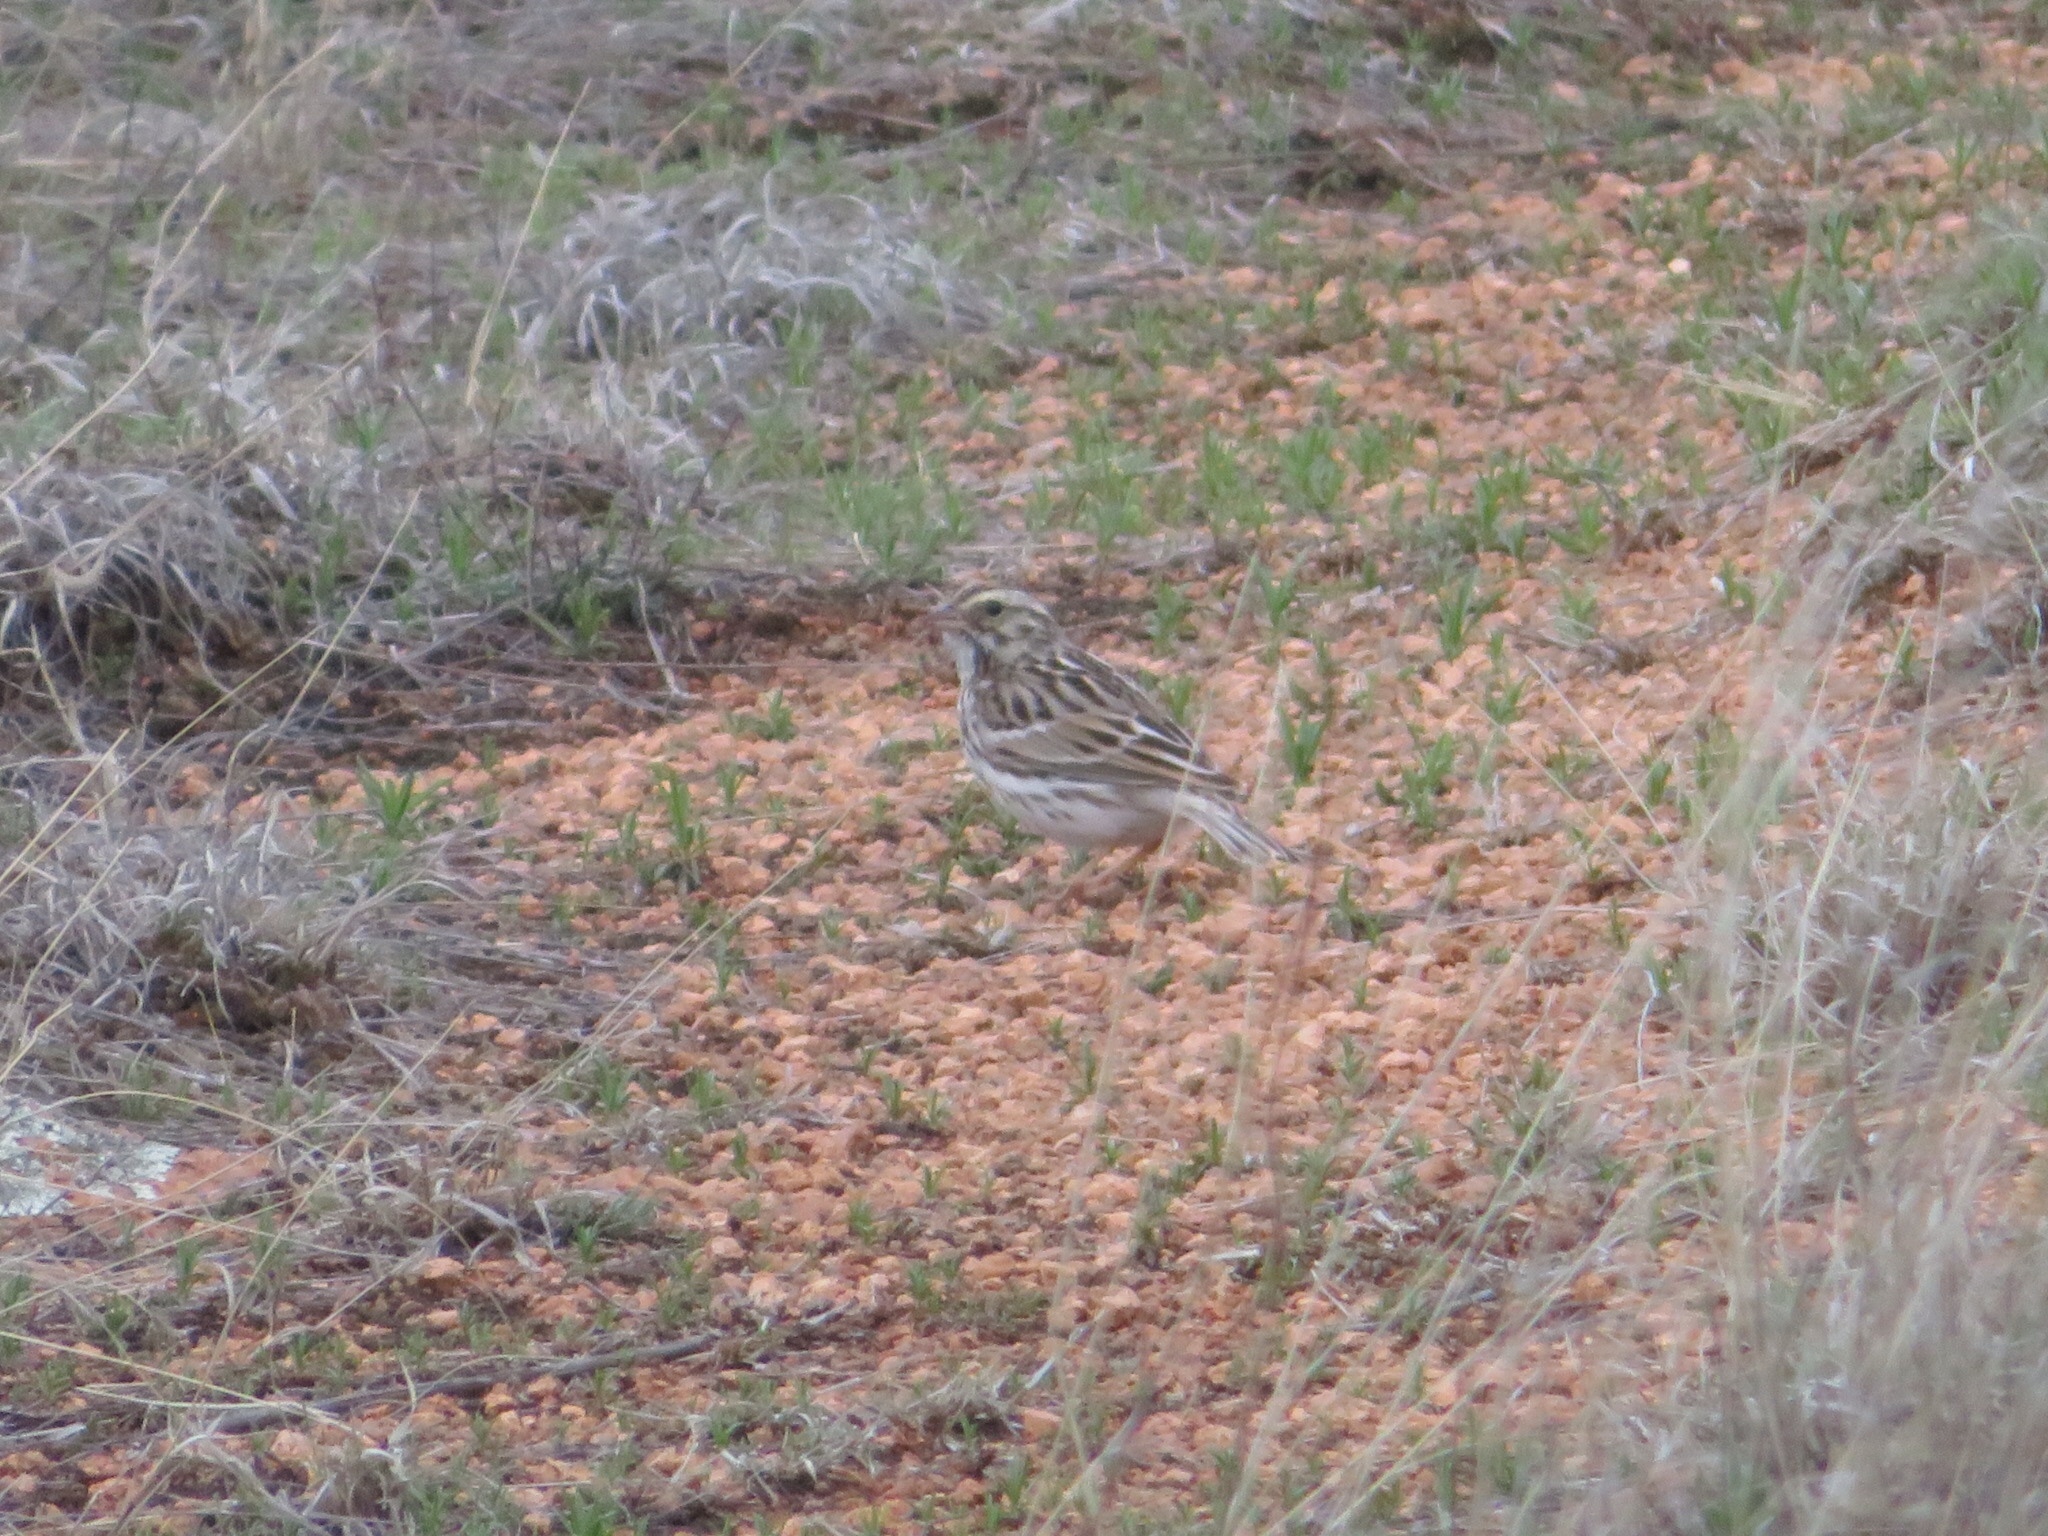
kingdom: Animalia
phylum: Chordata
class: Aves
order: Passeriformes
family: Passerellidae
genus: Passerculus
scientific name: Passerculus sandwichensis
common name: Savannah sparrow
